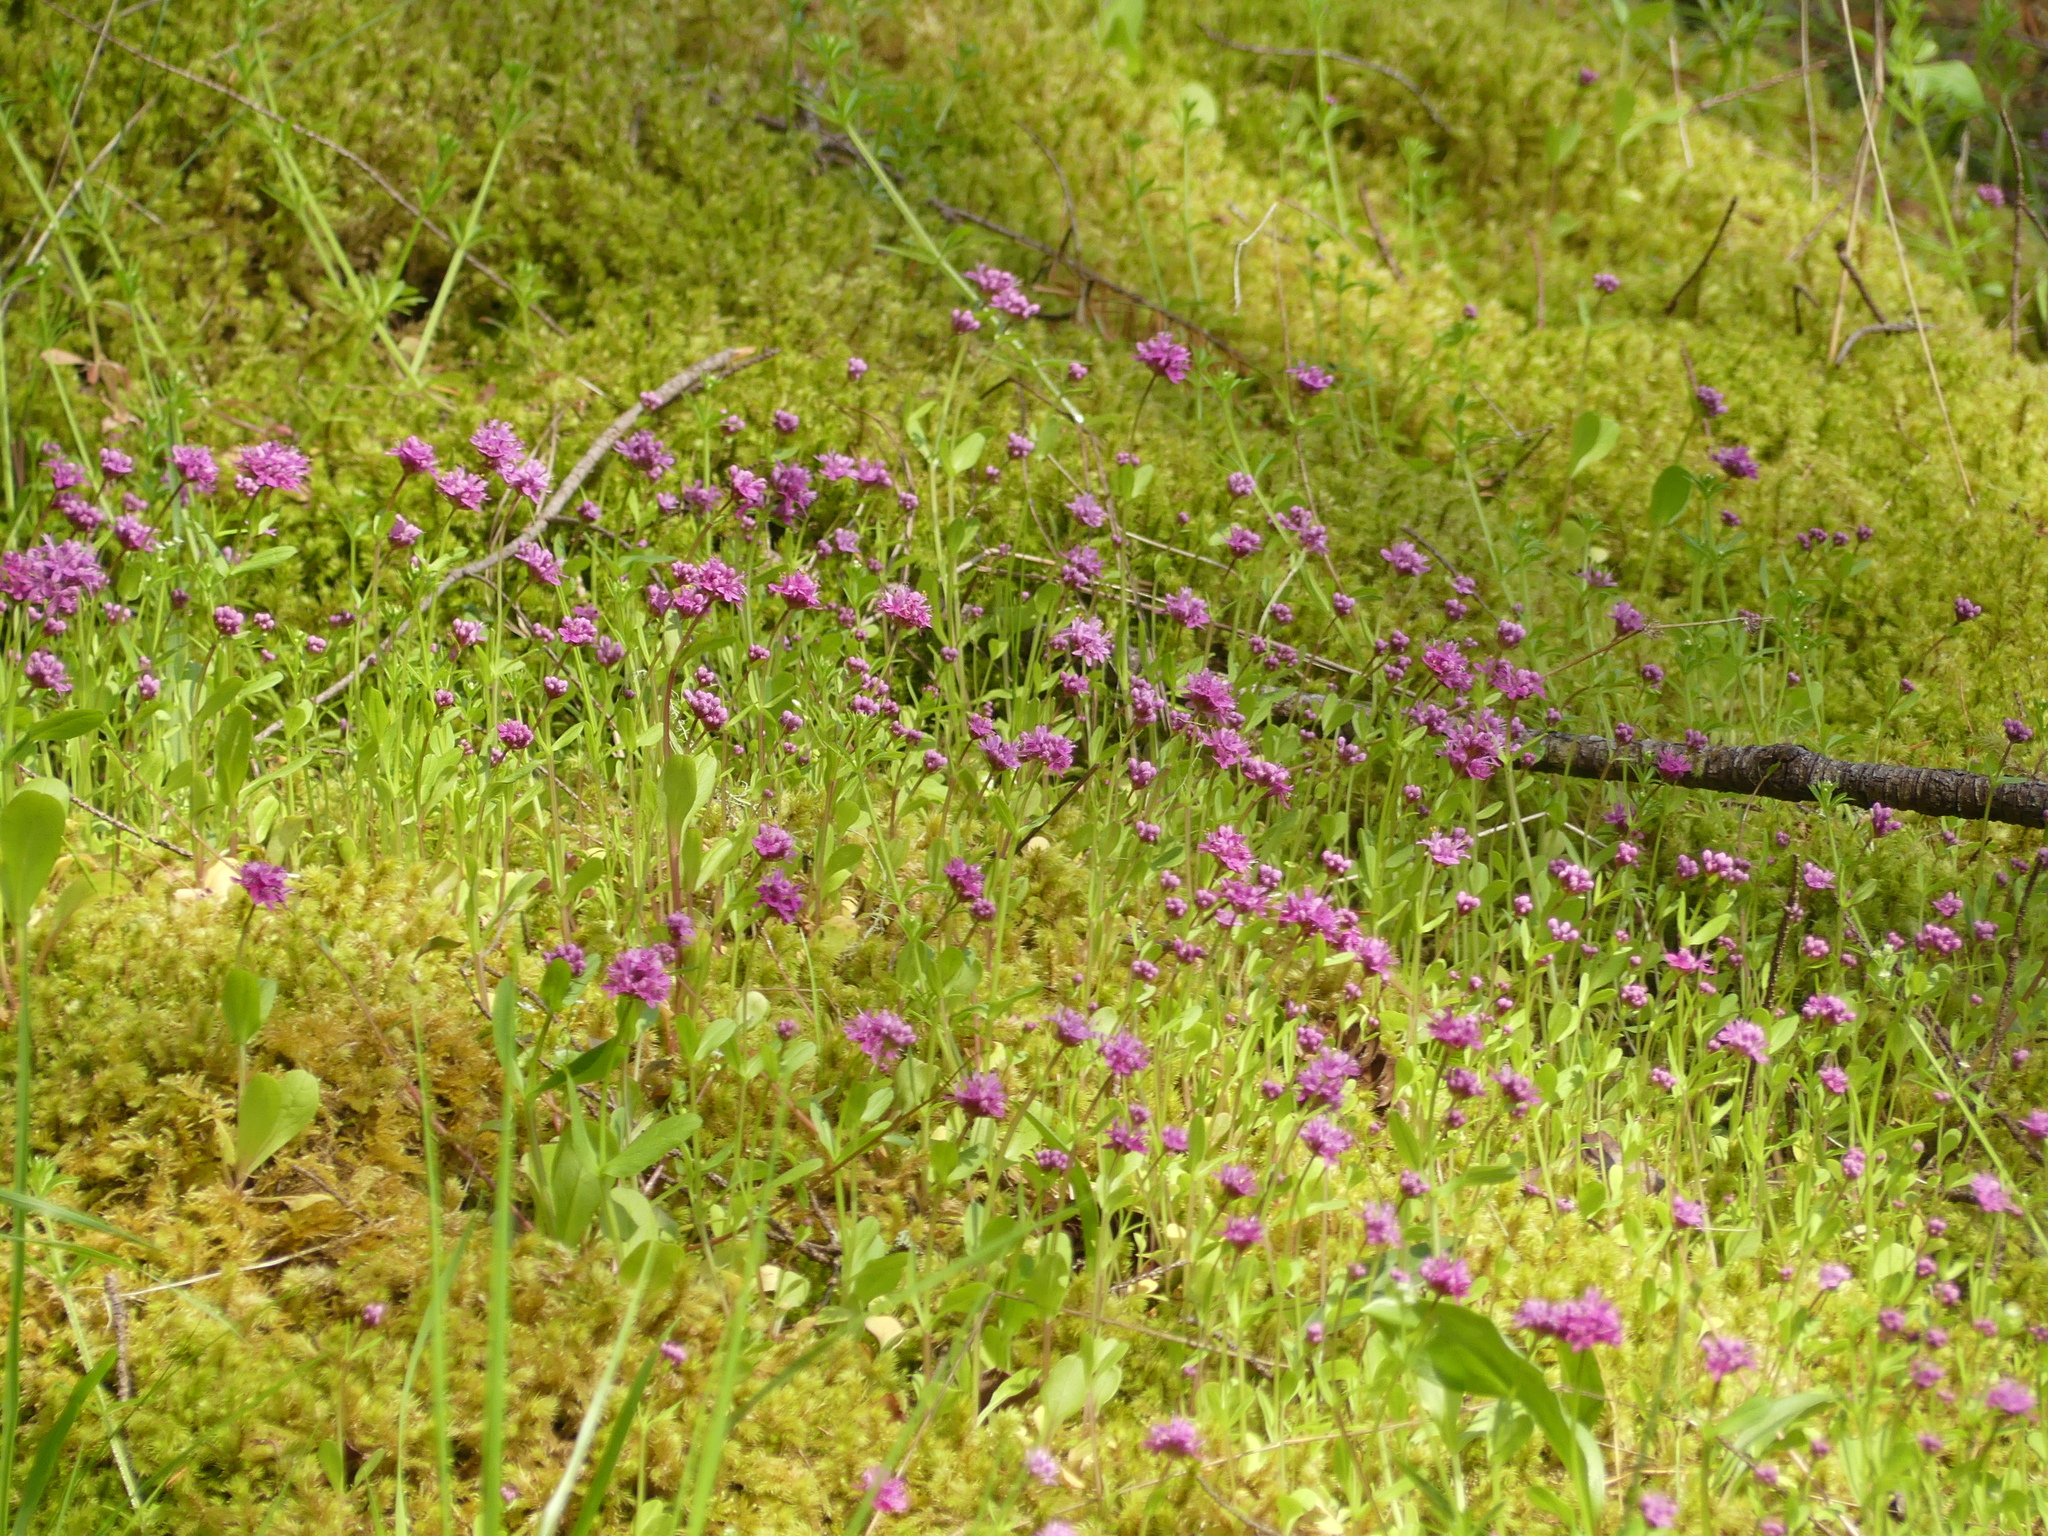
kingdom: Plantae
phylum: Tracheophyta
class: Magnoliopsida
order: Dipsacales
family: Caprifoliaceae
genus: Plectritis
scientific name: Plectritis congesta
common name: Pink plectritis
